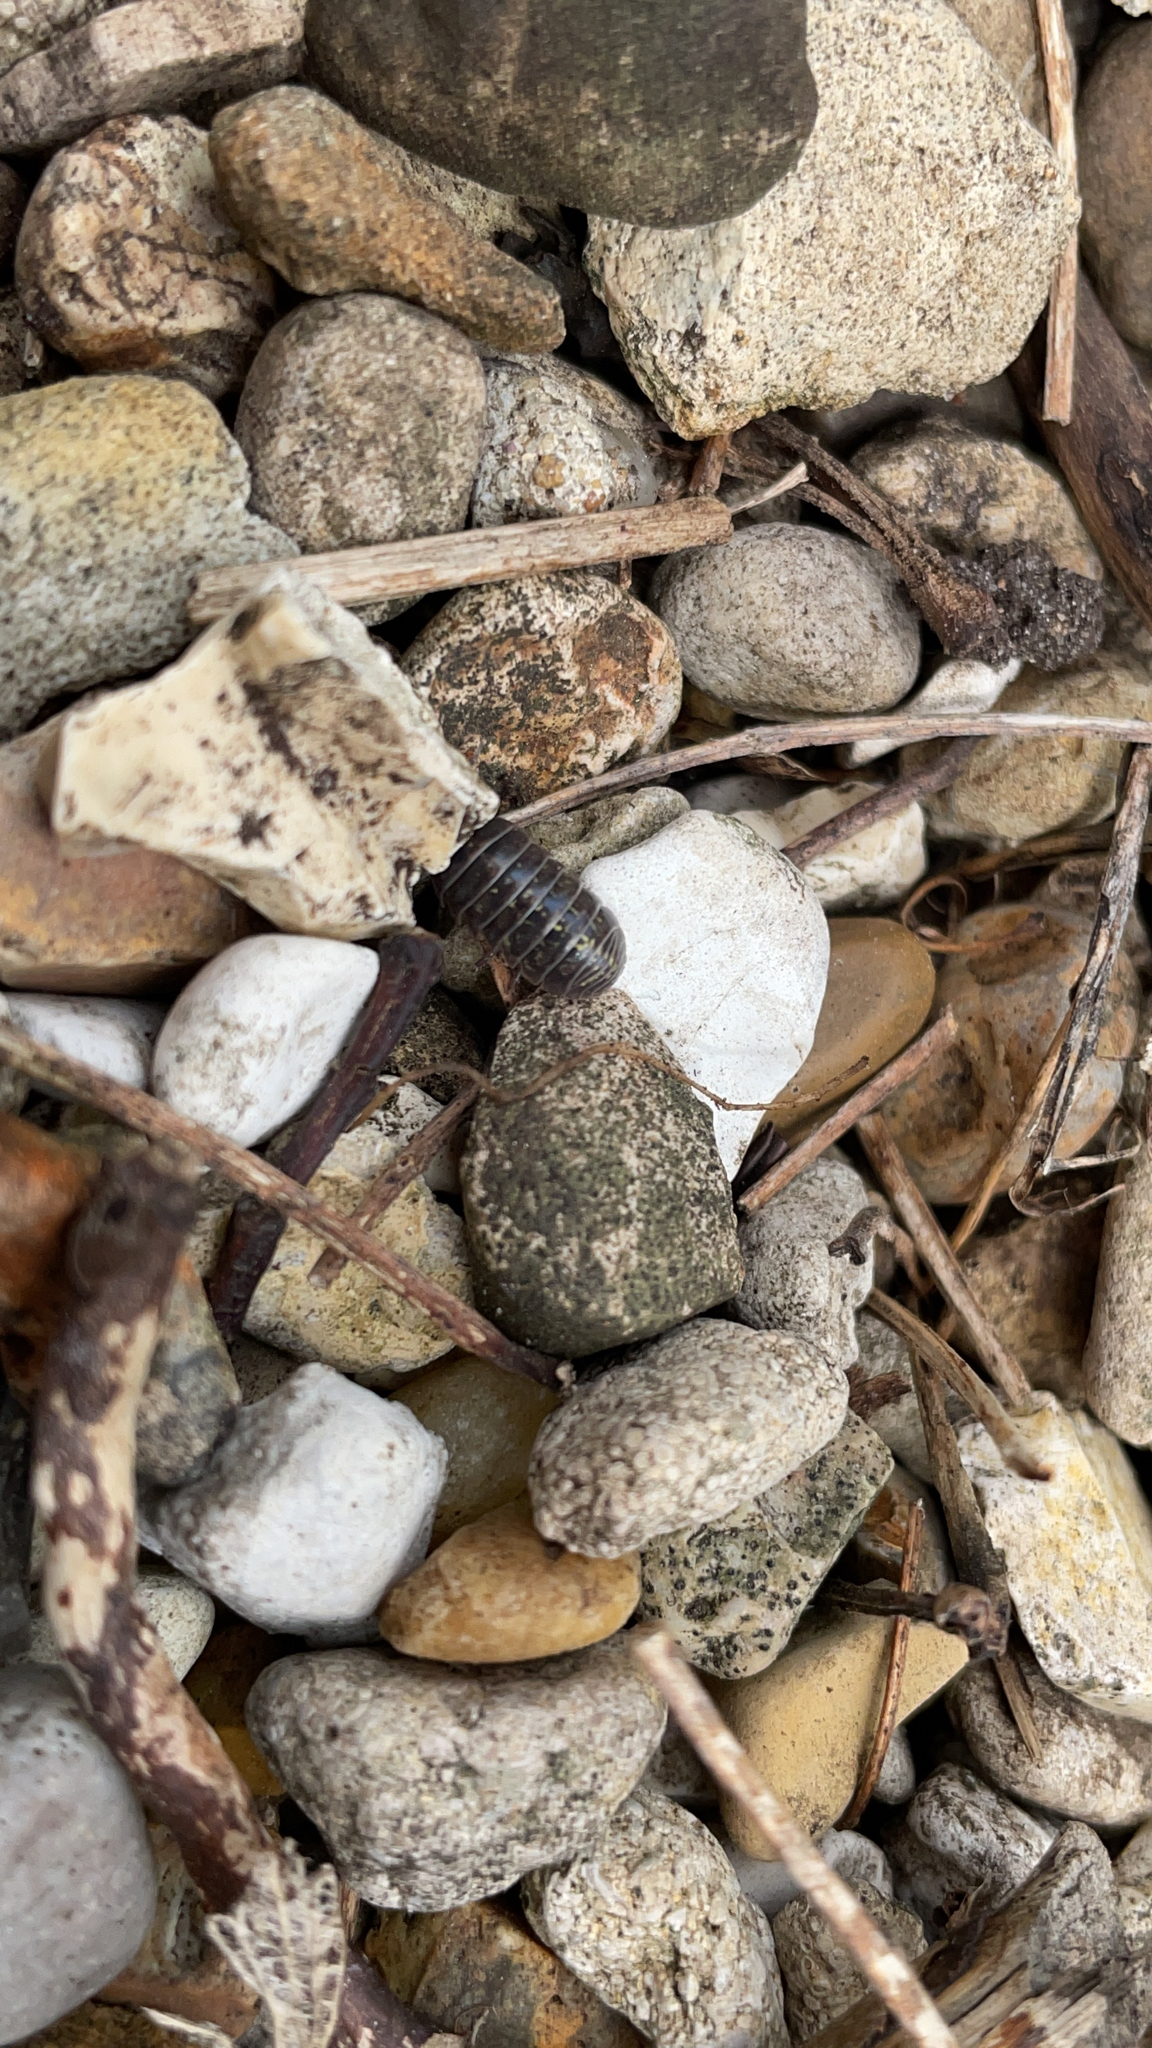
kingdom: Animalia
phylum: Arthropoda
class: Malacostraca
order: Isopoda
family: Armadillidiidae
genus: Armadillidium
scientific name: Armadillidium vulgare
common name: Common pill woodlouse
